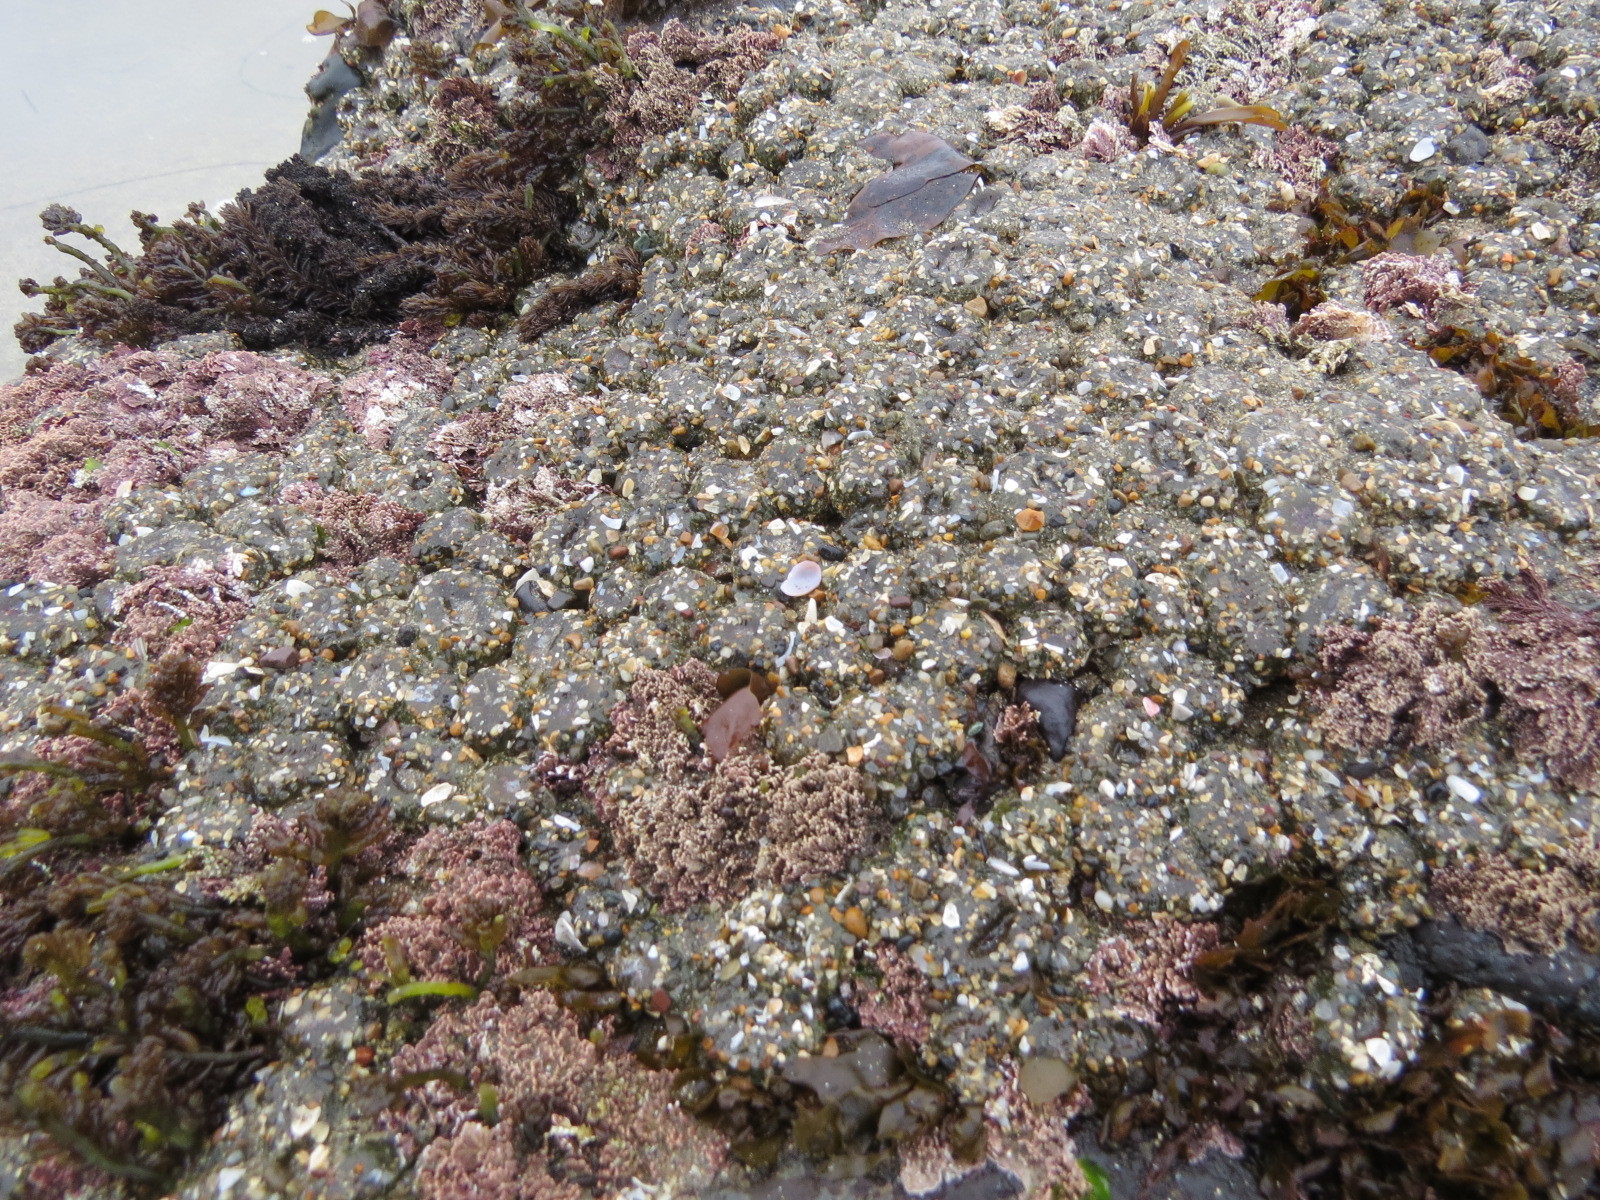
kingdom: Animalia
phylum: Cnidaria
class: Anthozoa
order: Actiniaria
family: Actiniidae
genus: Anthopleura
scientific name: Anthopleura elegantissima
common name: Clonal anemone
